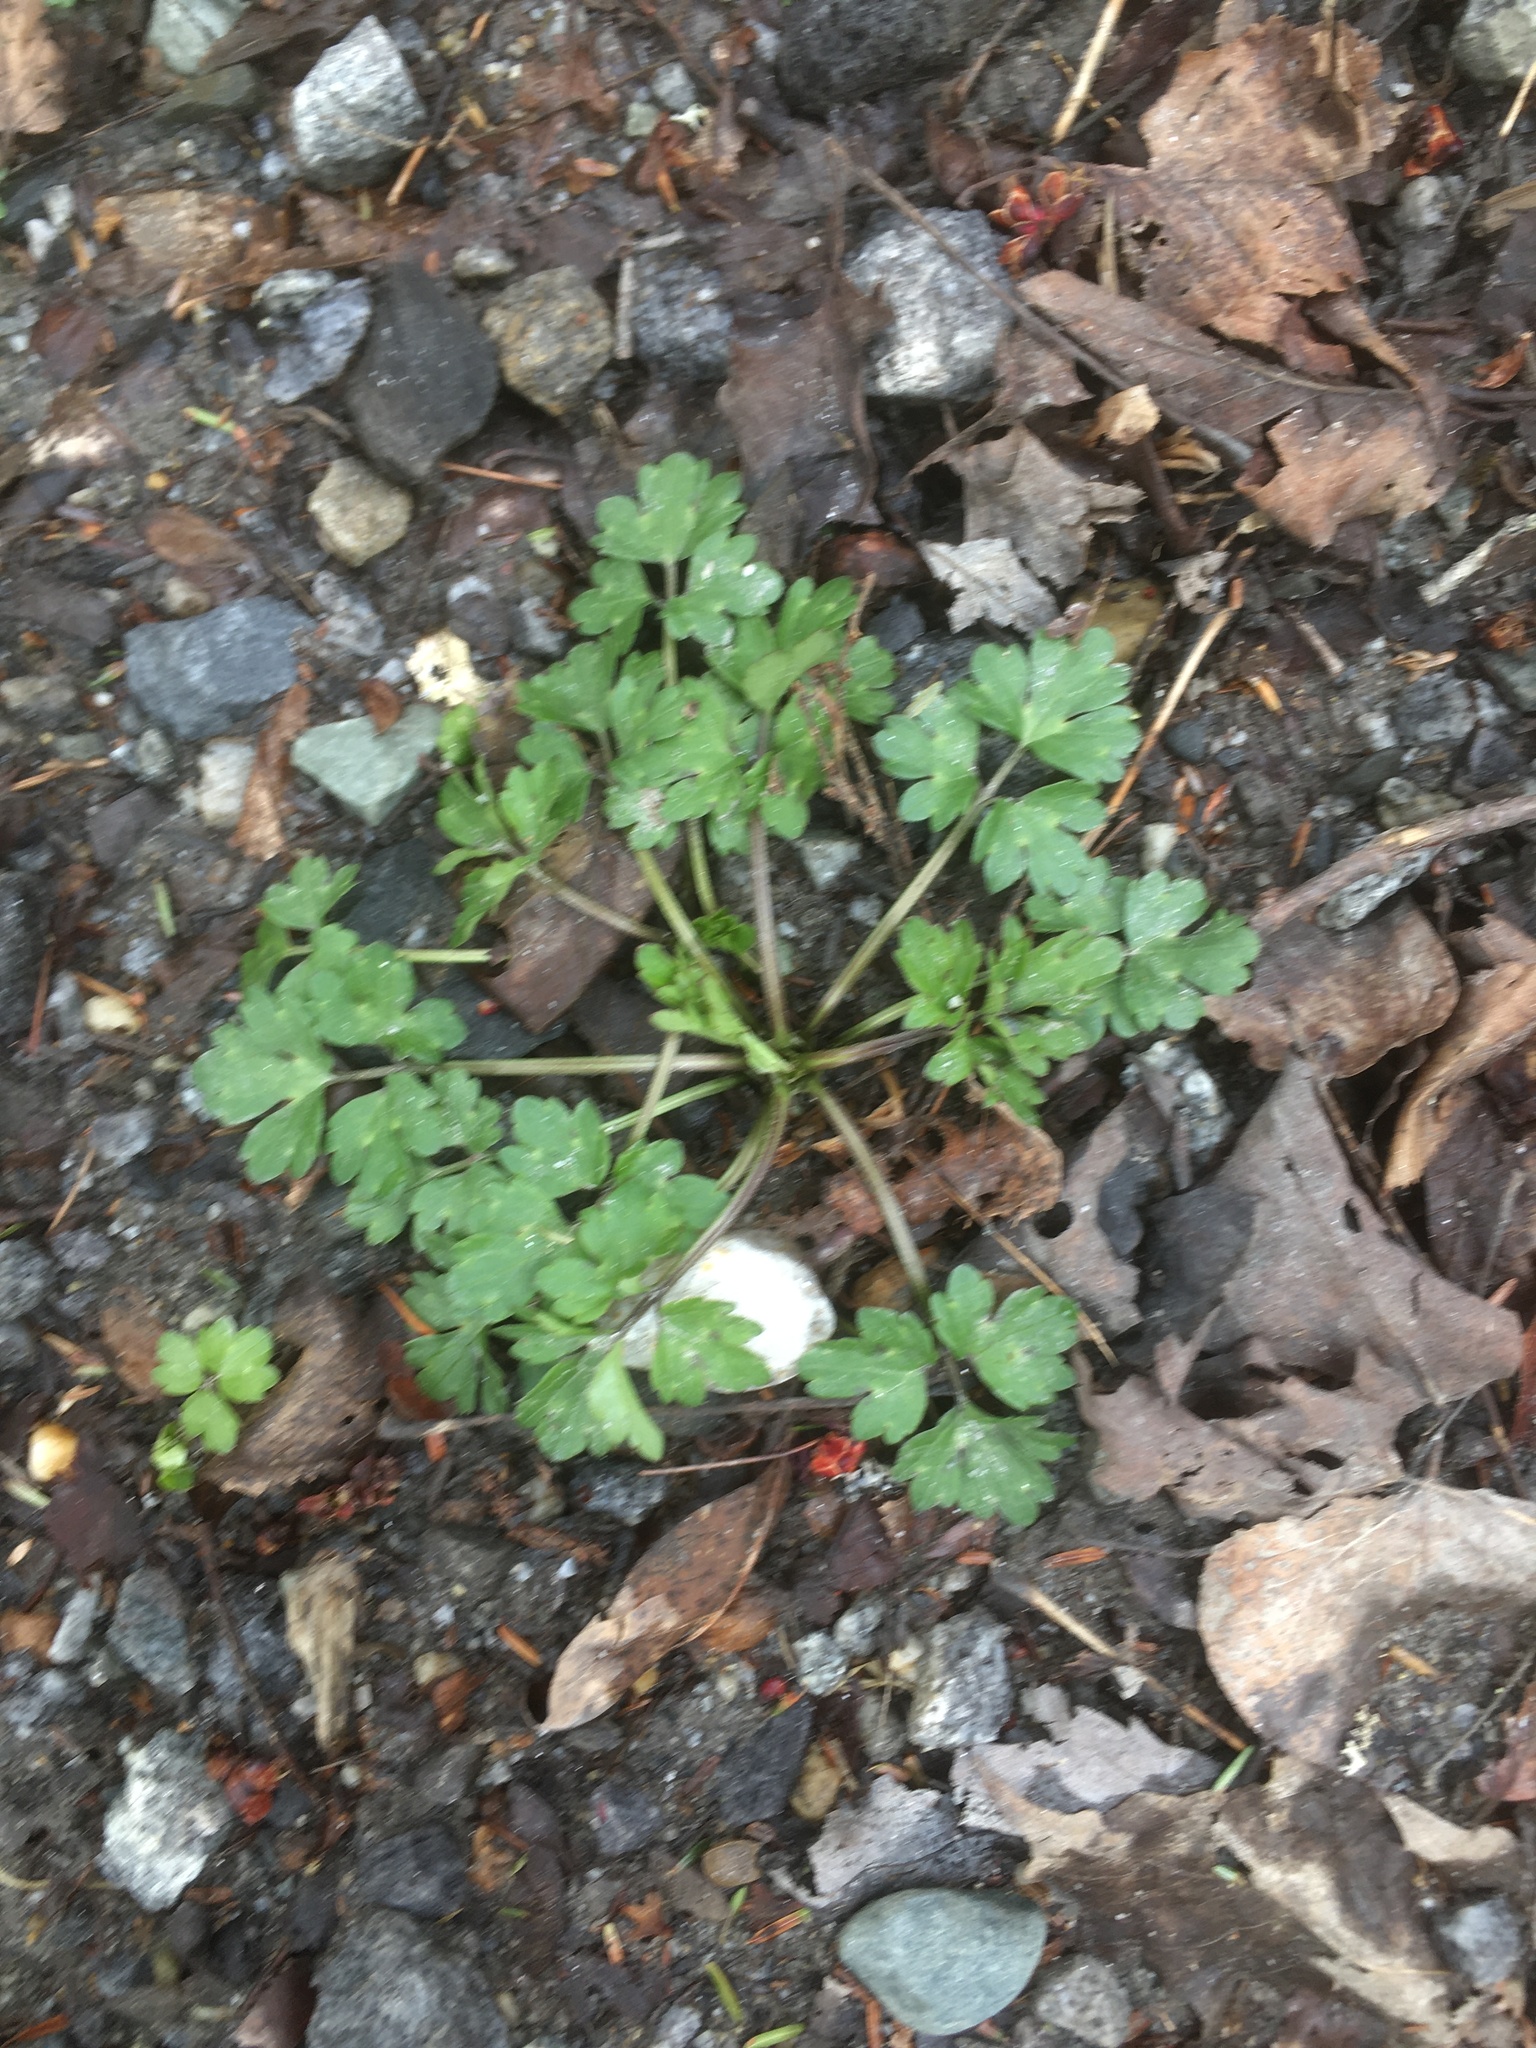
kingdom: Plantae
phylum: Tracheophyta
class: Magnoliopsida
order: Ranunculales
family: Ranunculaceae
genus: Ranunculus
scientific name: Ranunculus repens
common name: Creeping buttercup
